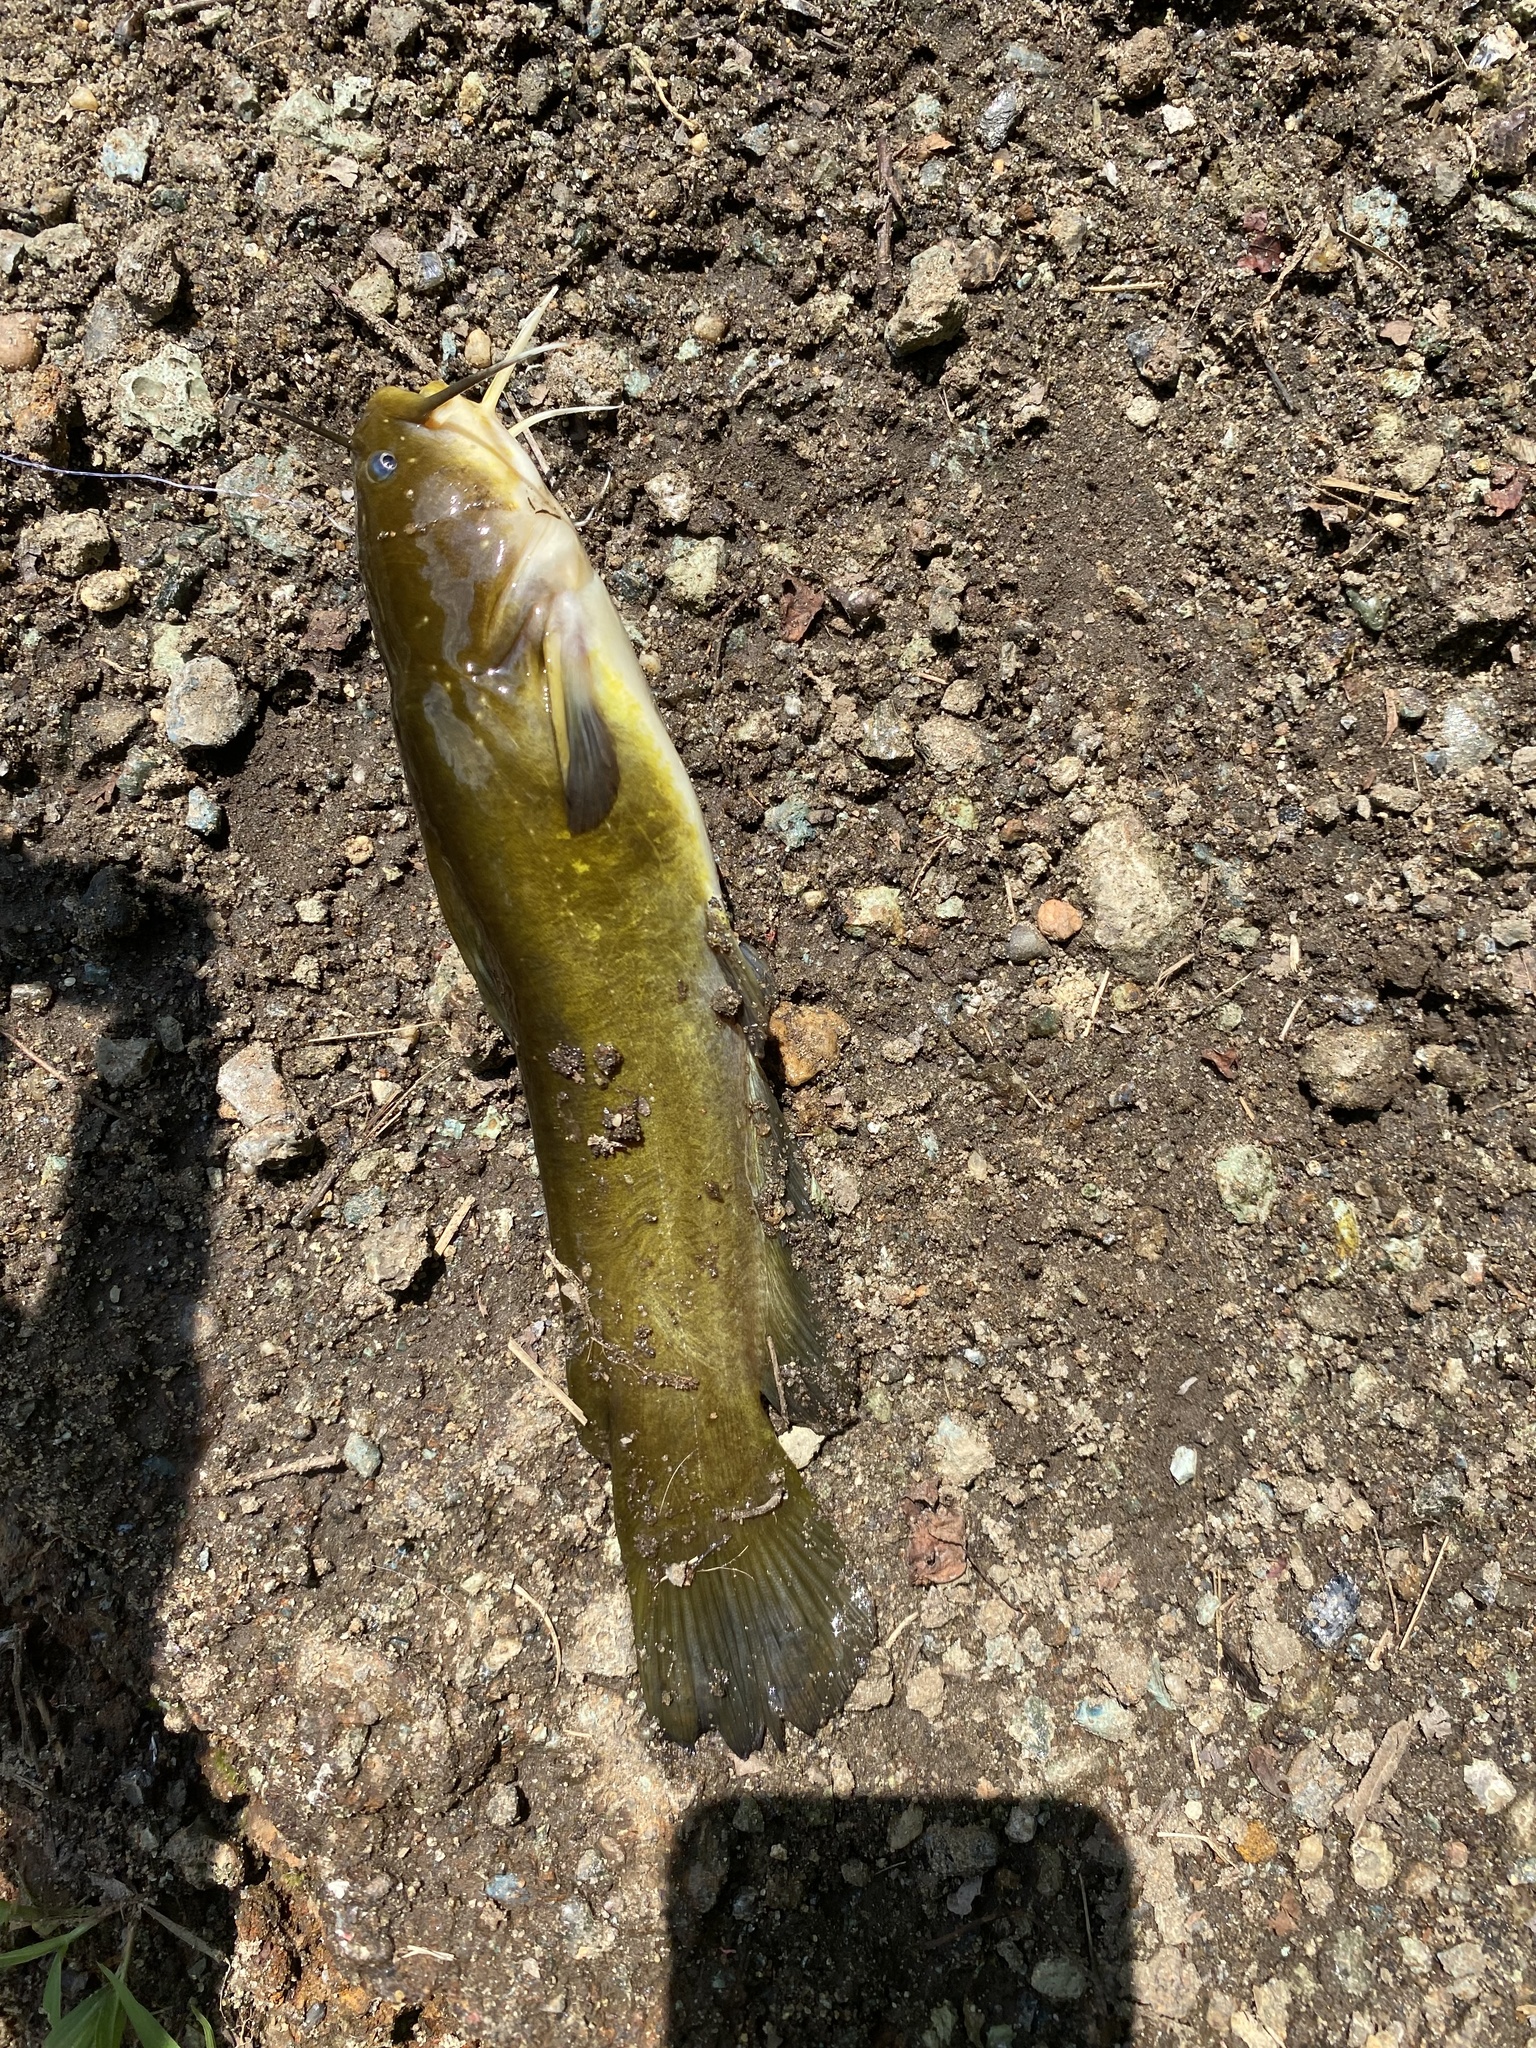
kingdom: Animalia
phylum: Chordata
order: Siluriformes
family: Ictaluridae
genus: Ameiurus
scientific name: Ameiurus natalis
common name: Yellow bullhead
